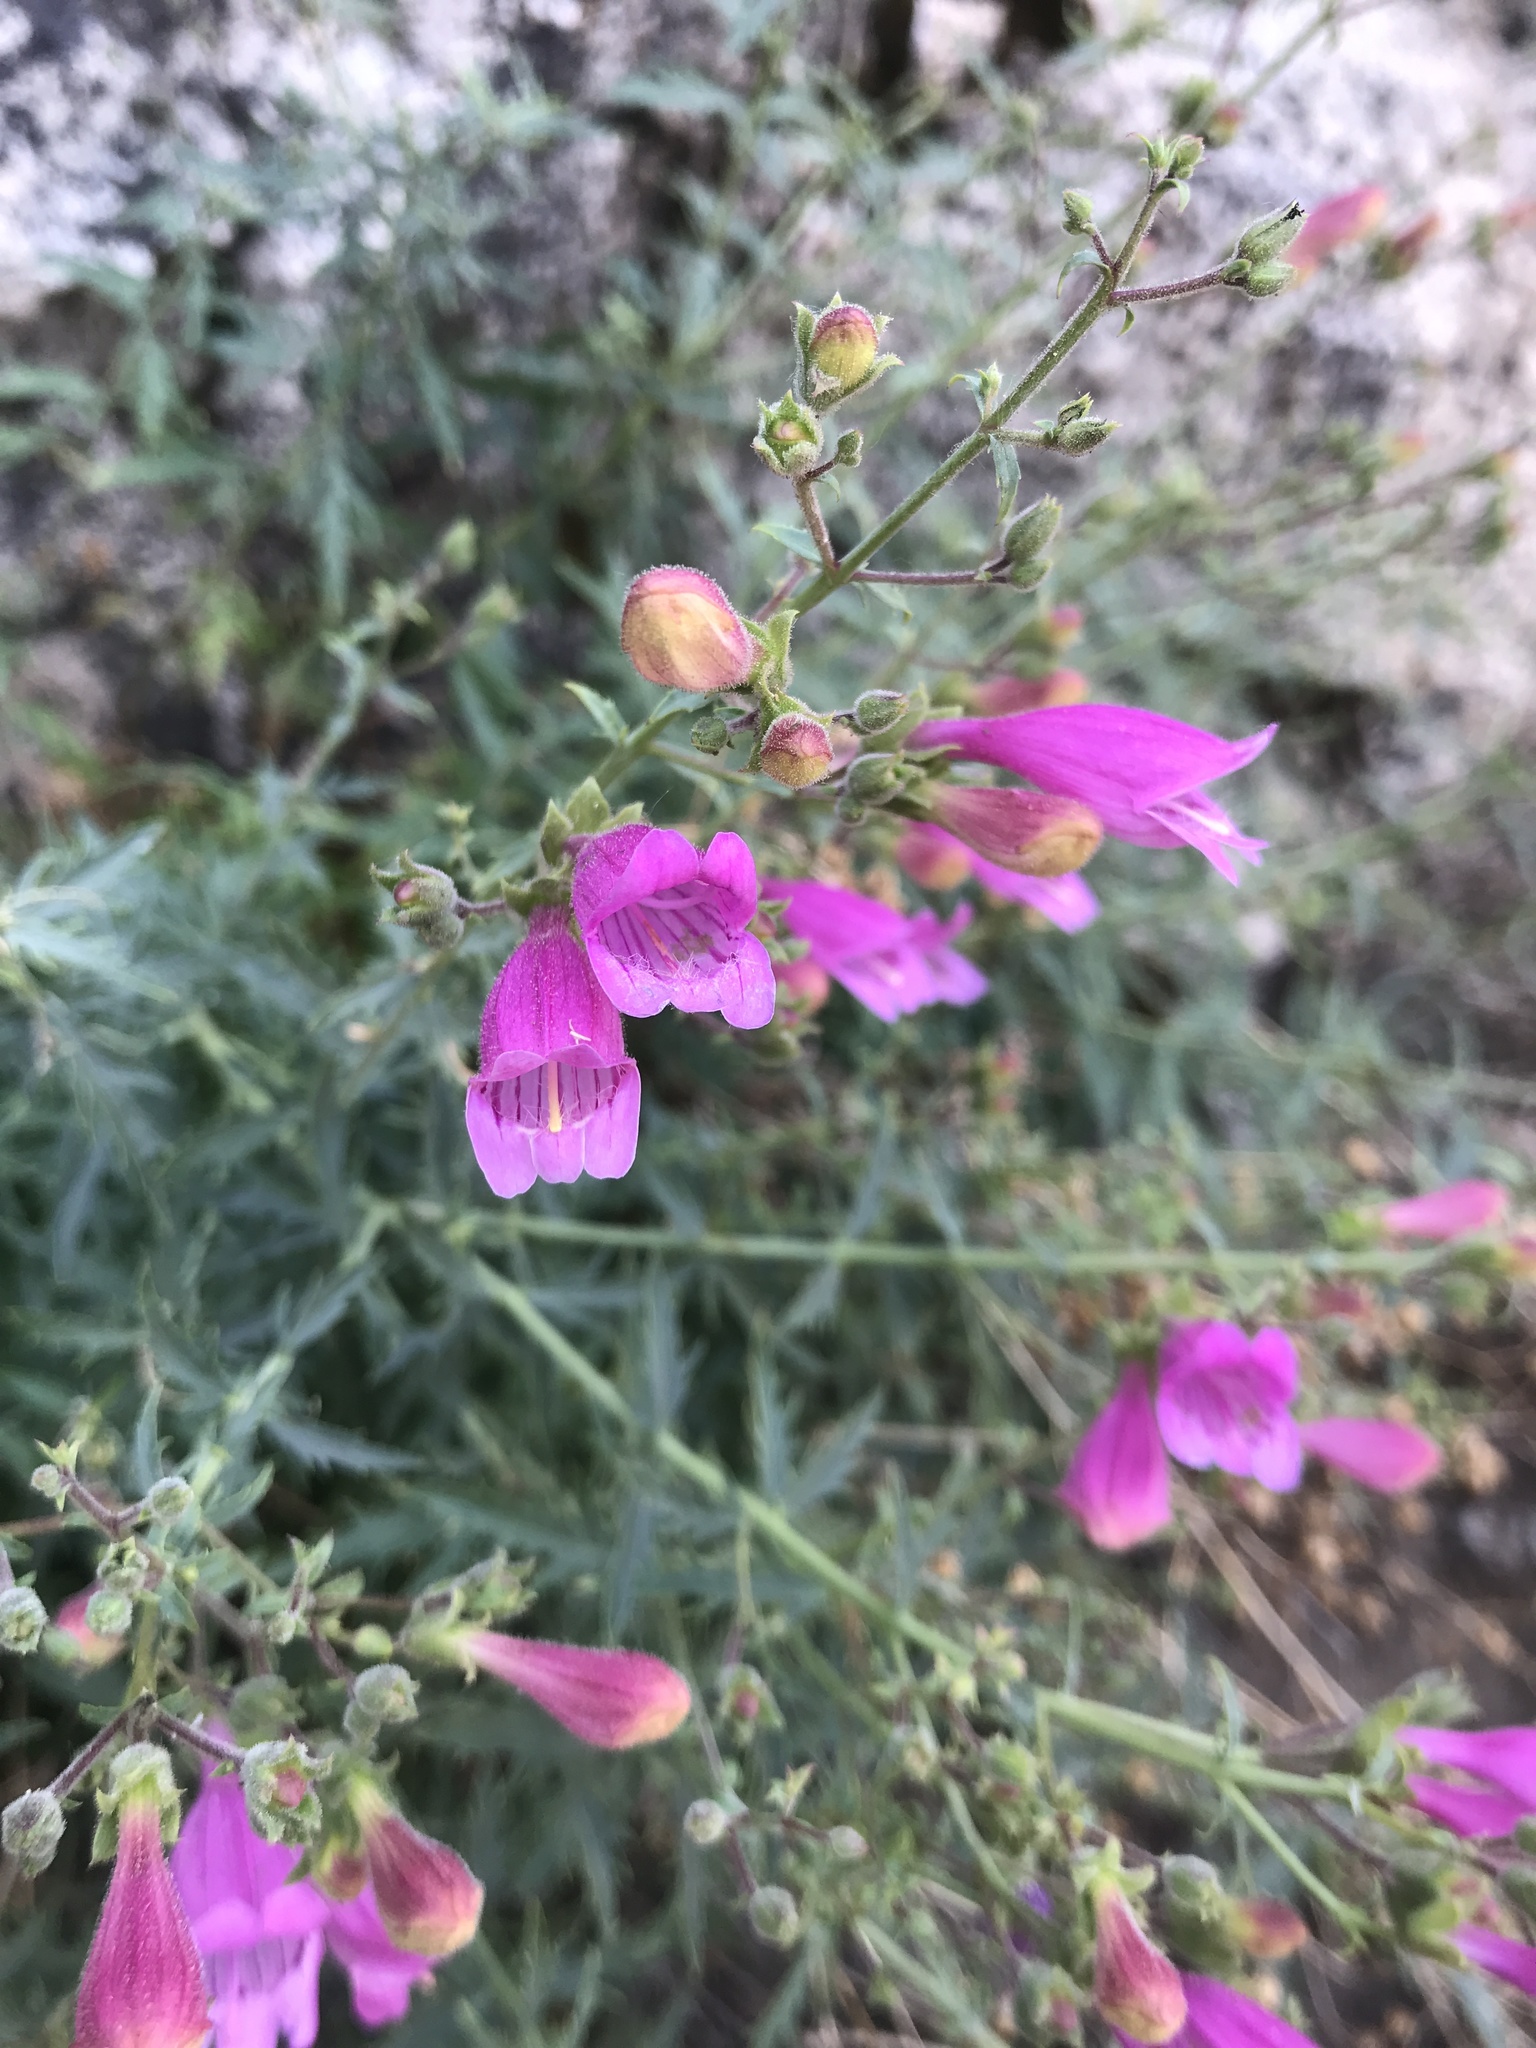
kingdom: Plantae
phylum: Tracheophyta
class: Magnoliopsida
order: Lamiales
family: Plantaginaceae
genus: Penstemon
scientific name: Penstemon richardsonii
